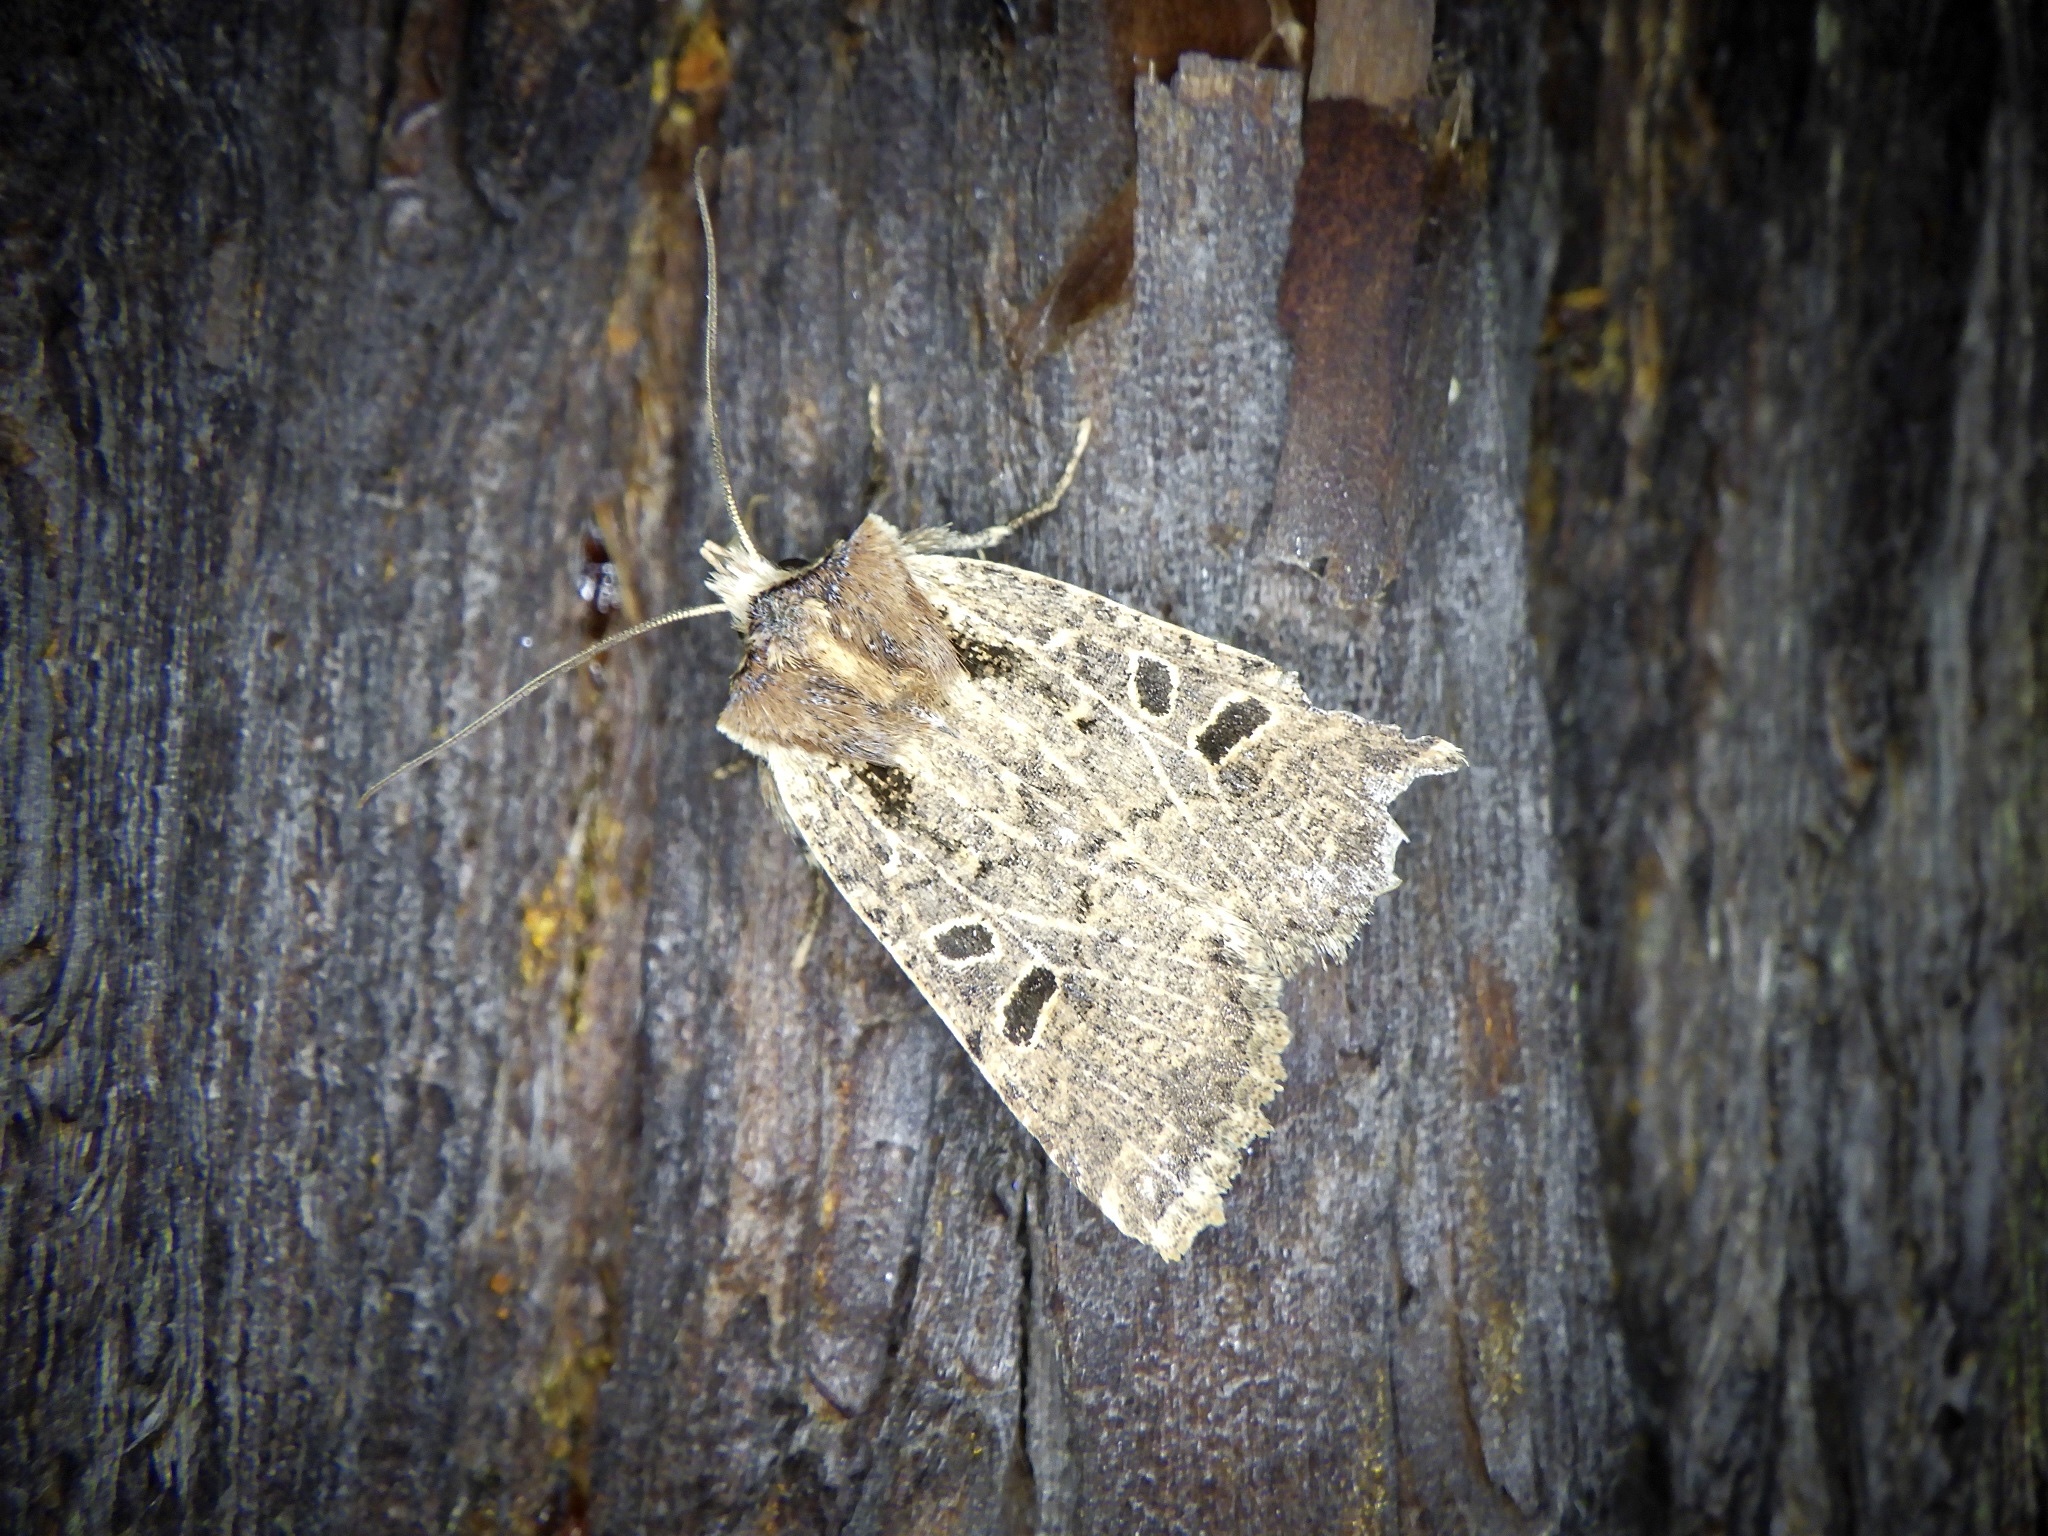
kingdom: Animalia
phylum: Arthropoda
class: Insecta
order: Lepidoptera
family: Noctuidae
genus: Rhynchaglaea
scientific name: Rhynchaglaea scitula
